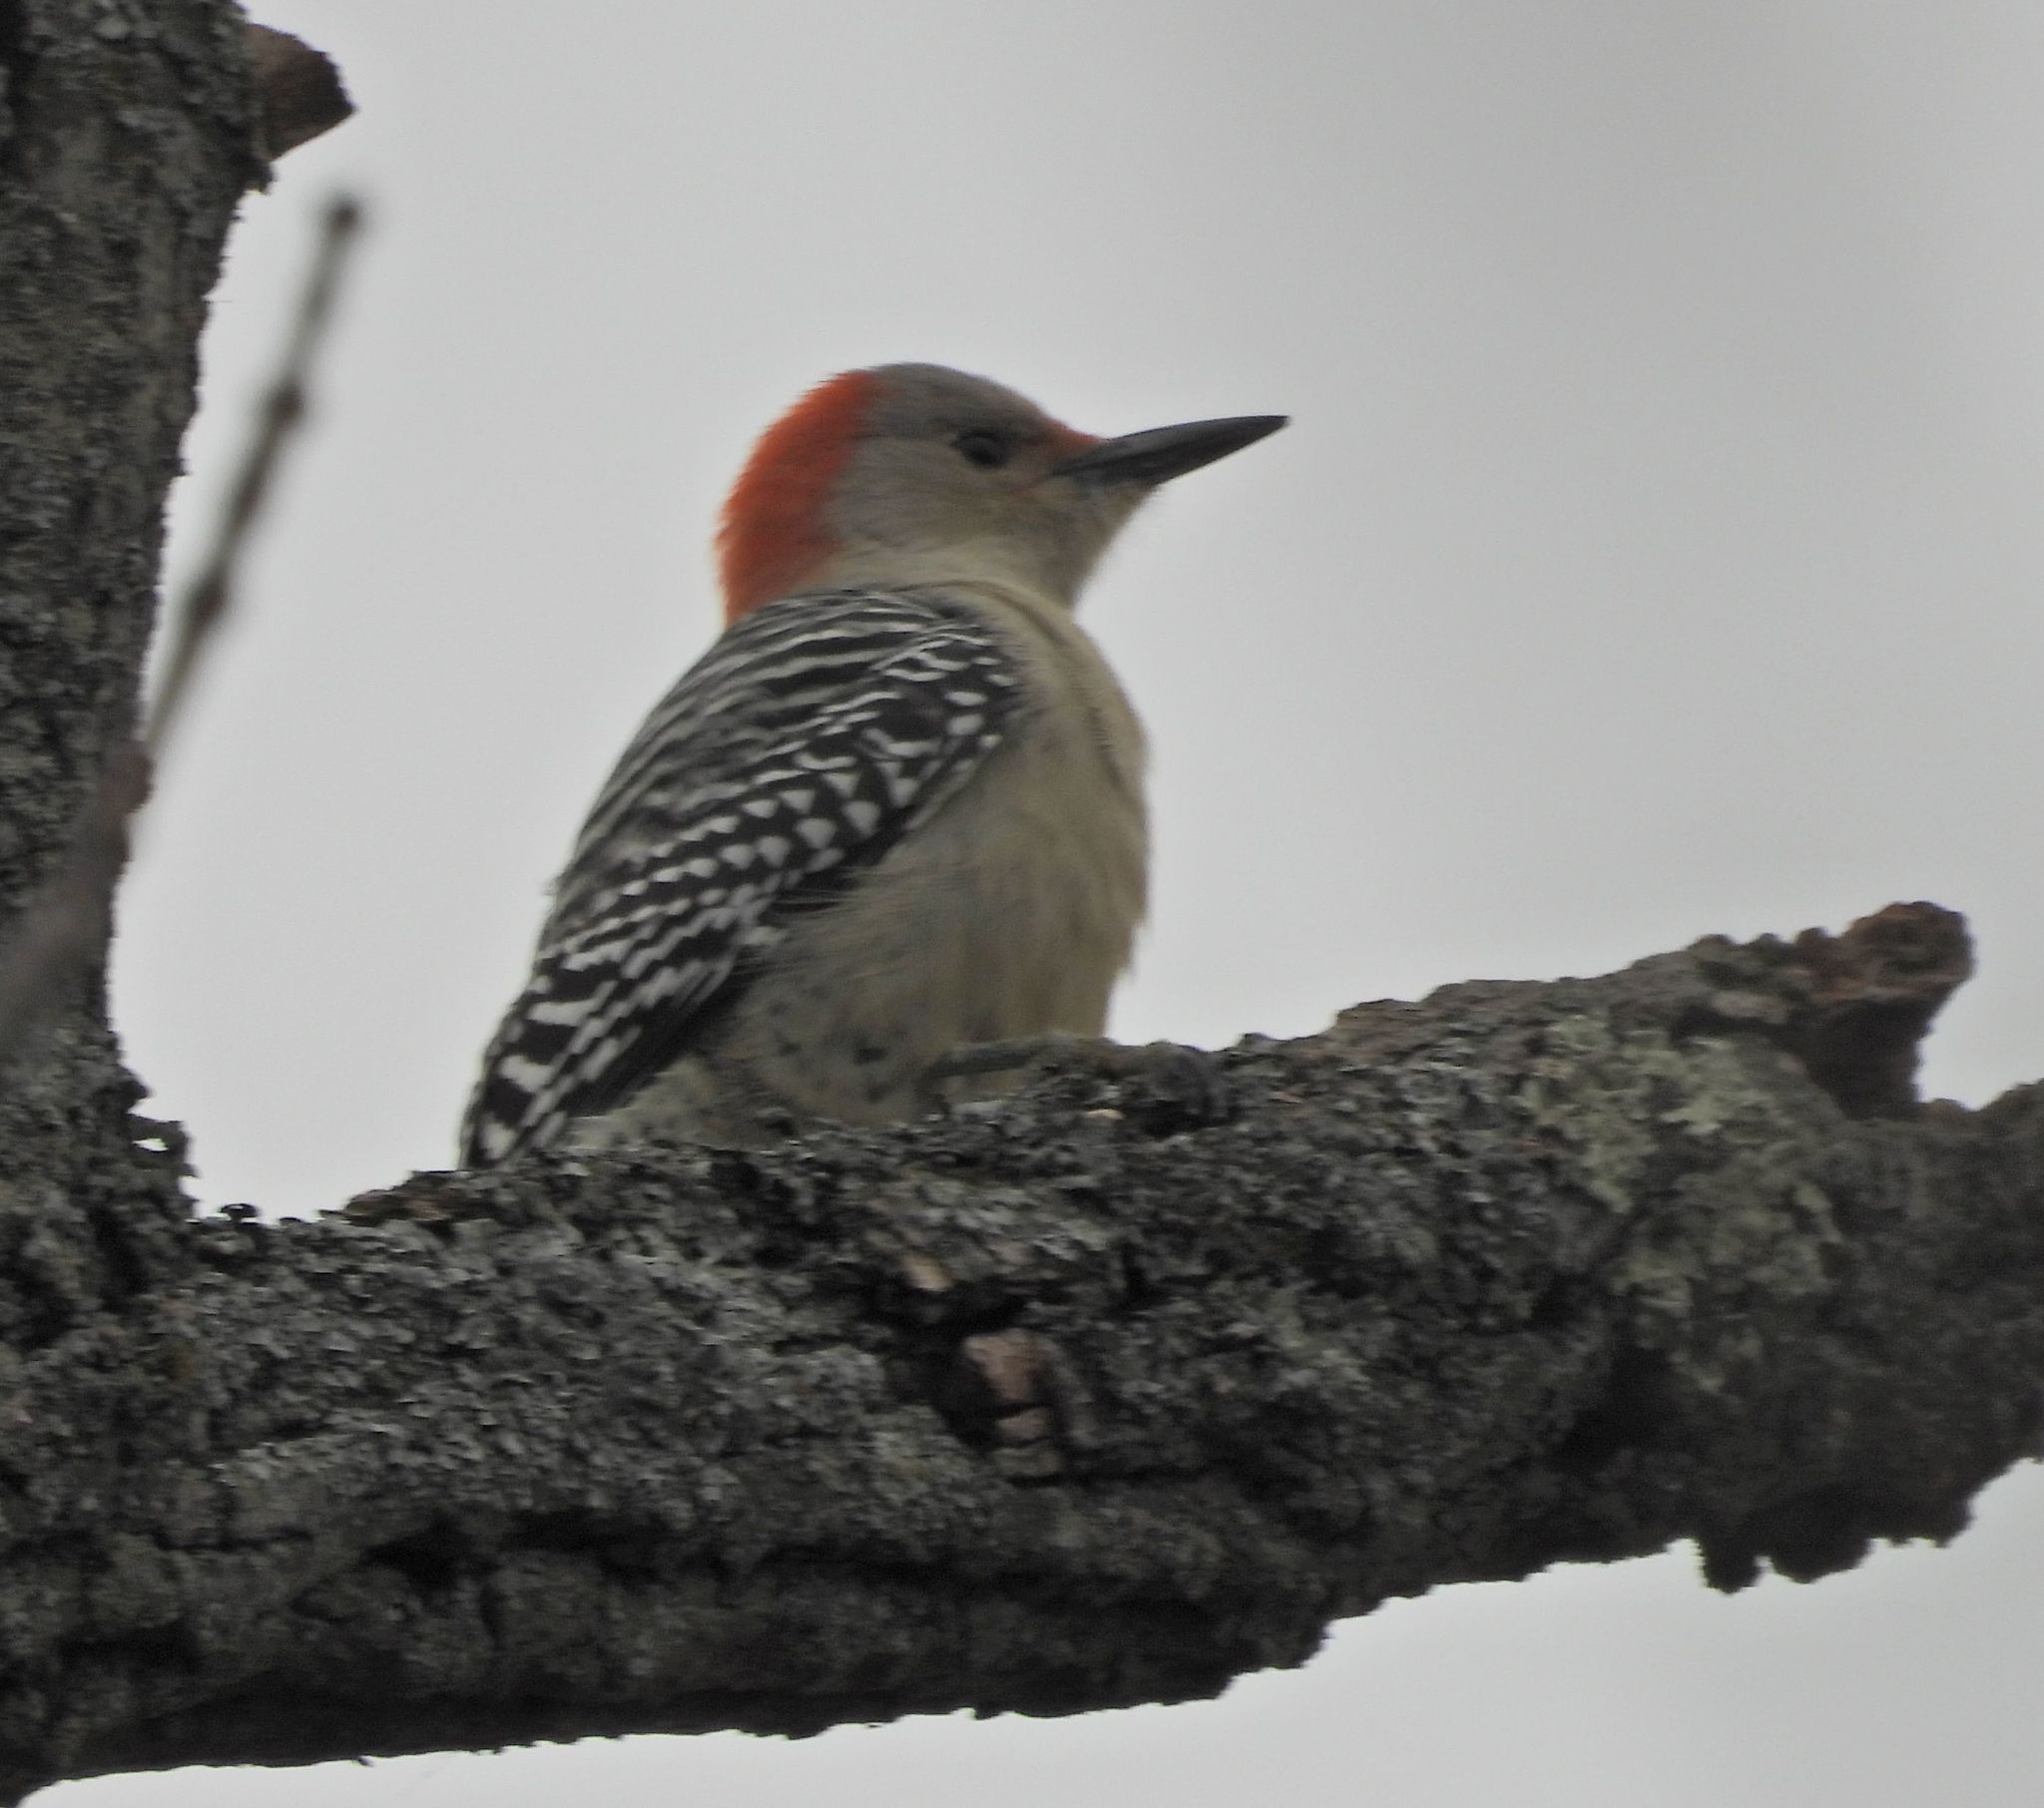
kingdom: Animalia
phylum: Chordata
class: Aves
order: Piciformes
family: Picidae
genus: Melanerpes
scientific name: Melanerpes carolinus
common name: Red-bellied woodpecker
